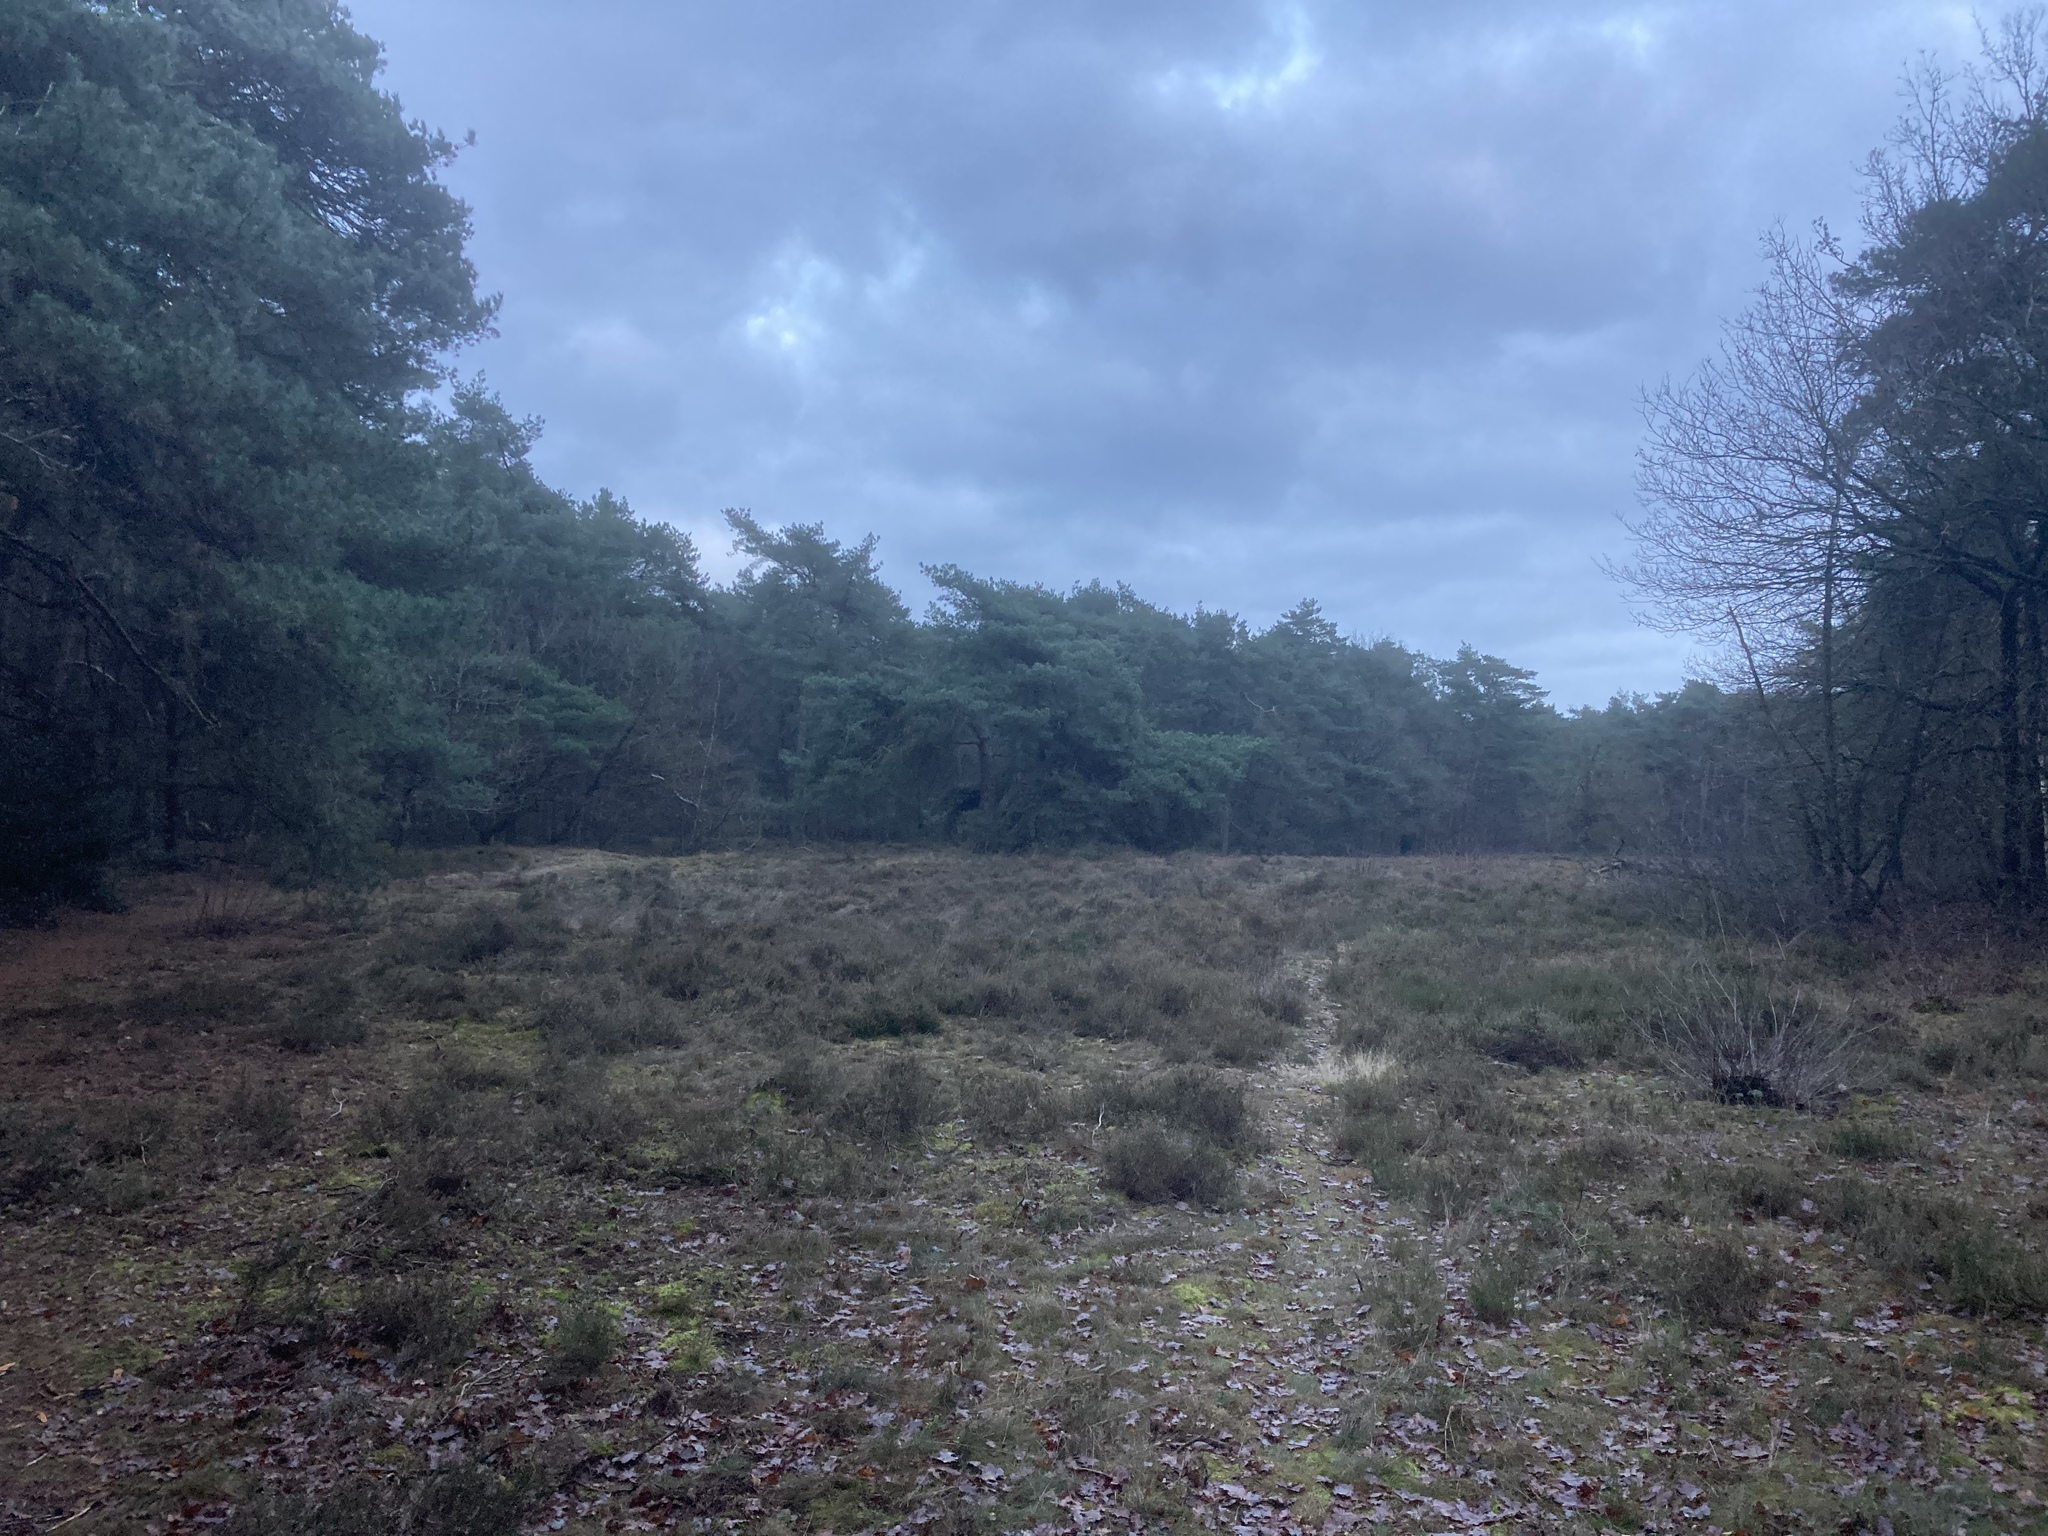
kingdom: Plantae
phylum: Tracheophyta
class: Pinopsida
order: Pinales
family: Pinaceae
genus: Pinus
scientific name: Pinus sylvestris
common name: Scots pine
